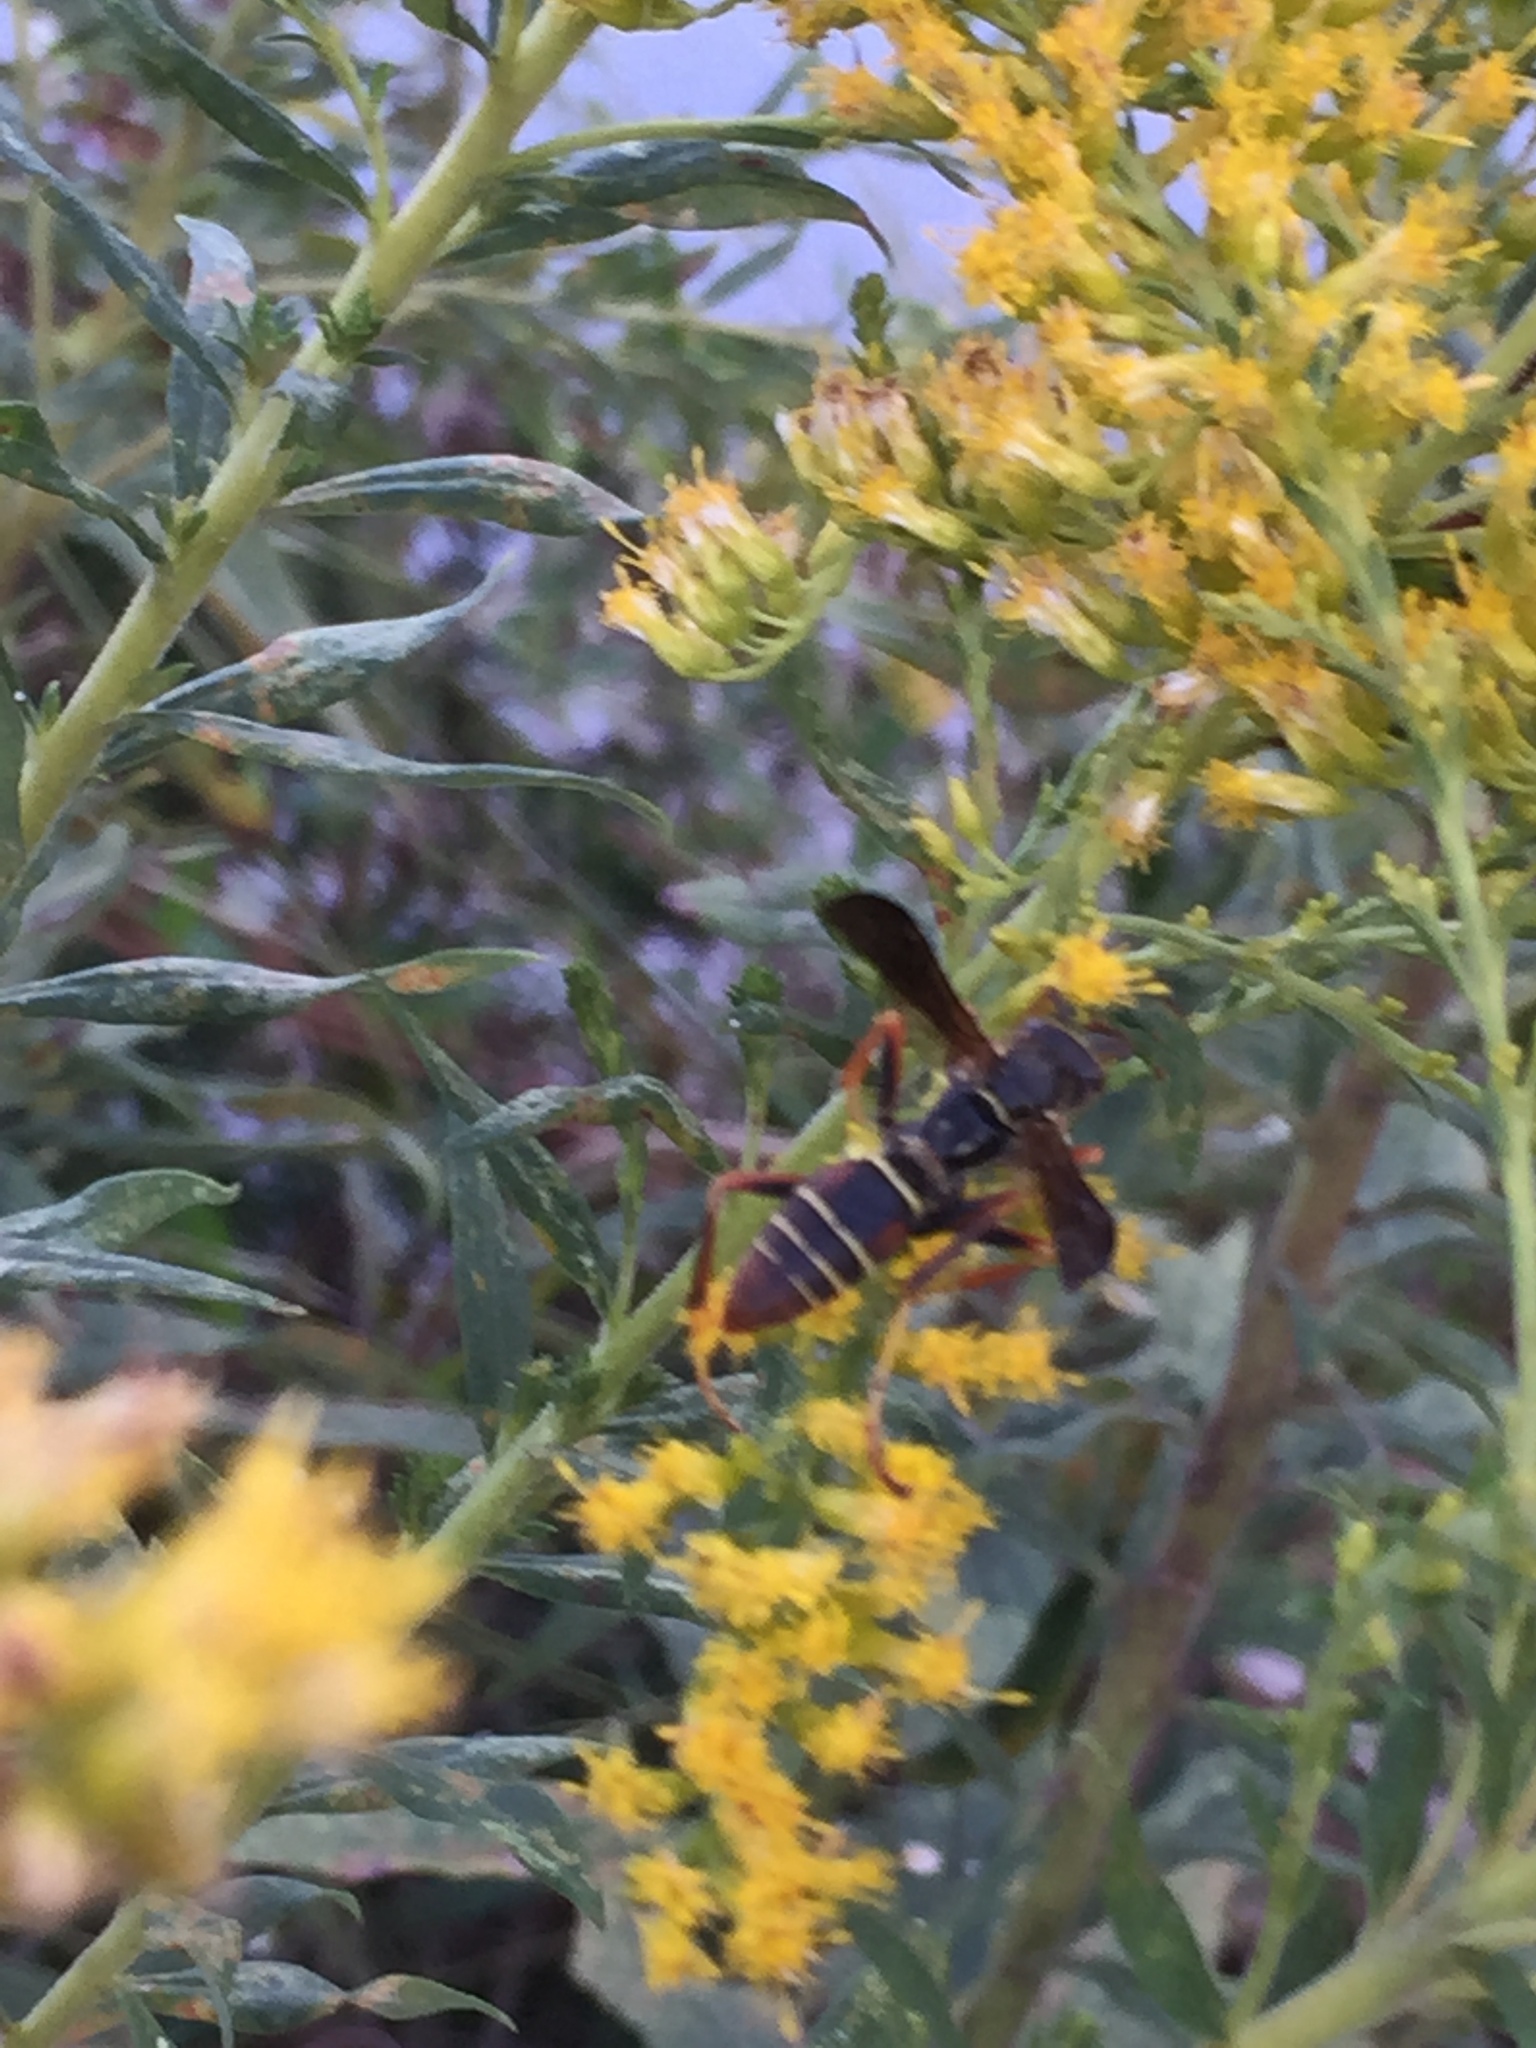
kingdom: Animalia
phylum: Arthropoda
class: Insecta
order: Hymenoptera
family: Eumenidae
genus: Polistes
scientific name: Polistes fuscatus
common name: Dark paper wasp
